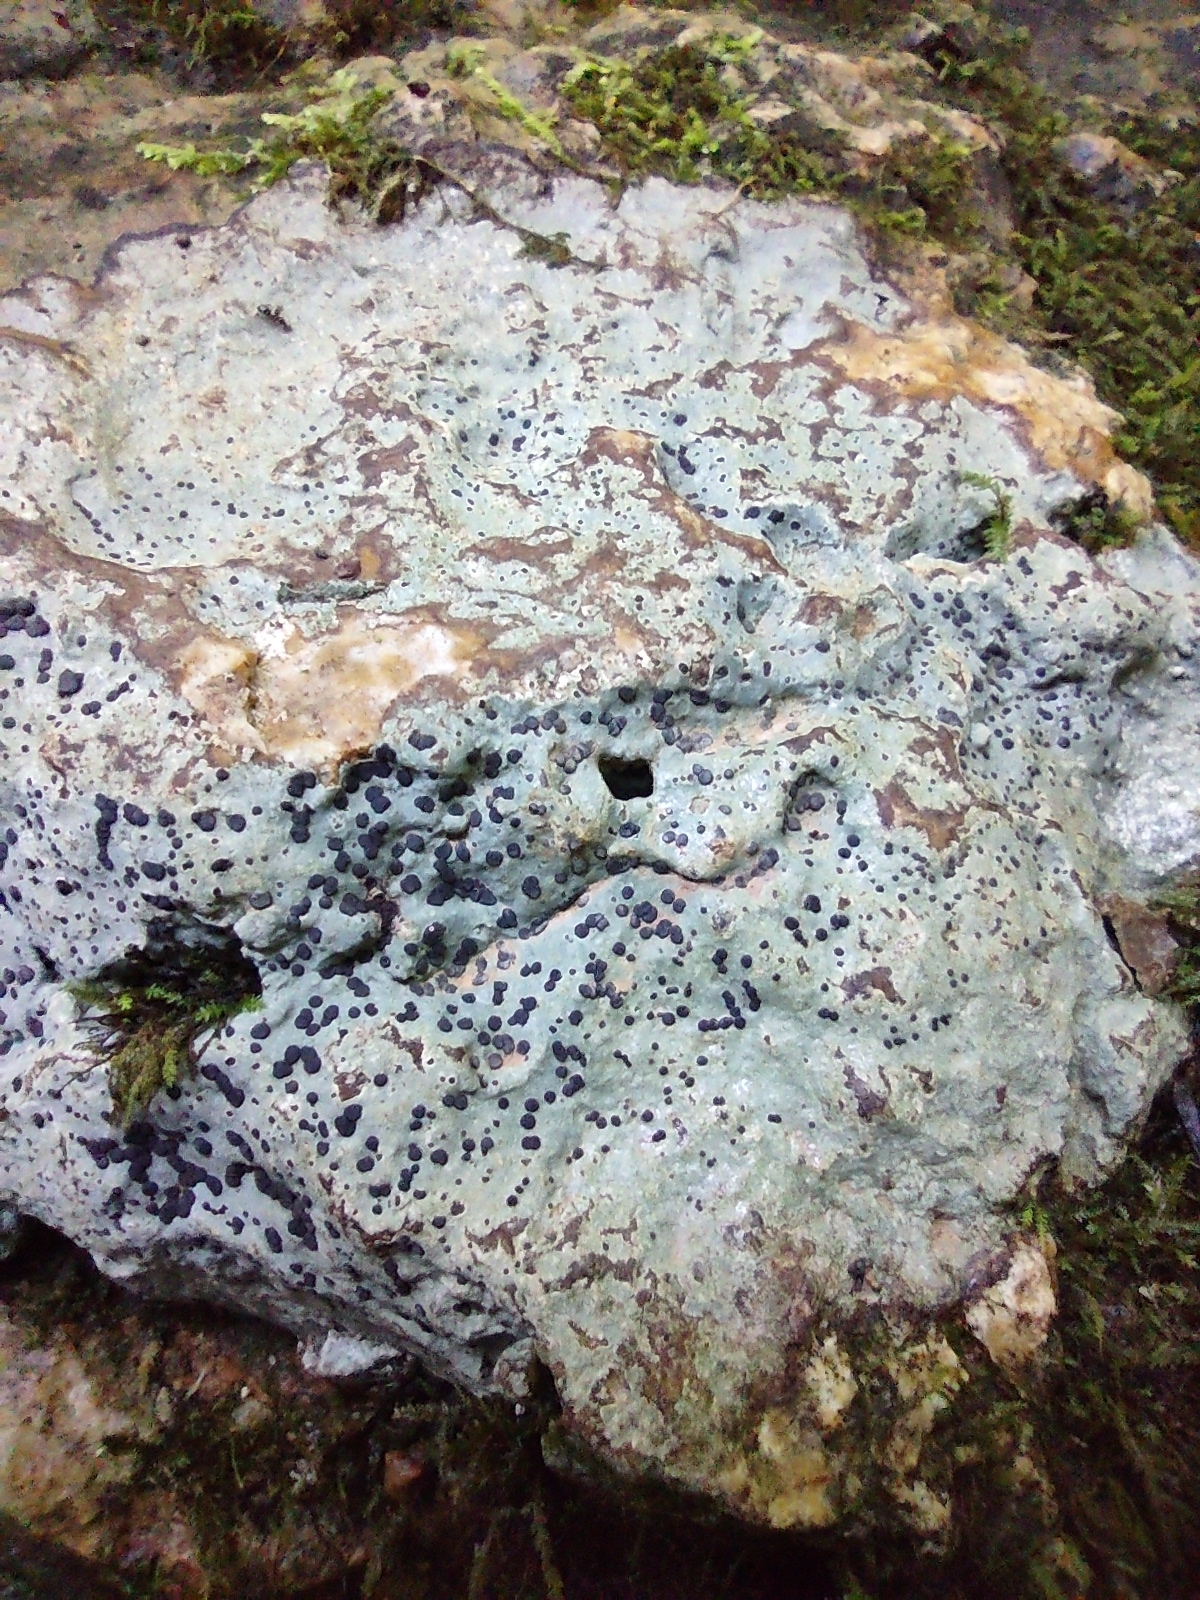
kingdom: Fungi
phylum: Ascomycota
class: Lecanoromycetes
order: Lecideales
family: Lecideaceae
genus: Porpidia
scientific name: Porpidia albocaerulescens
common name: Smokey-eyed boulder lichen
